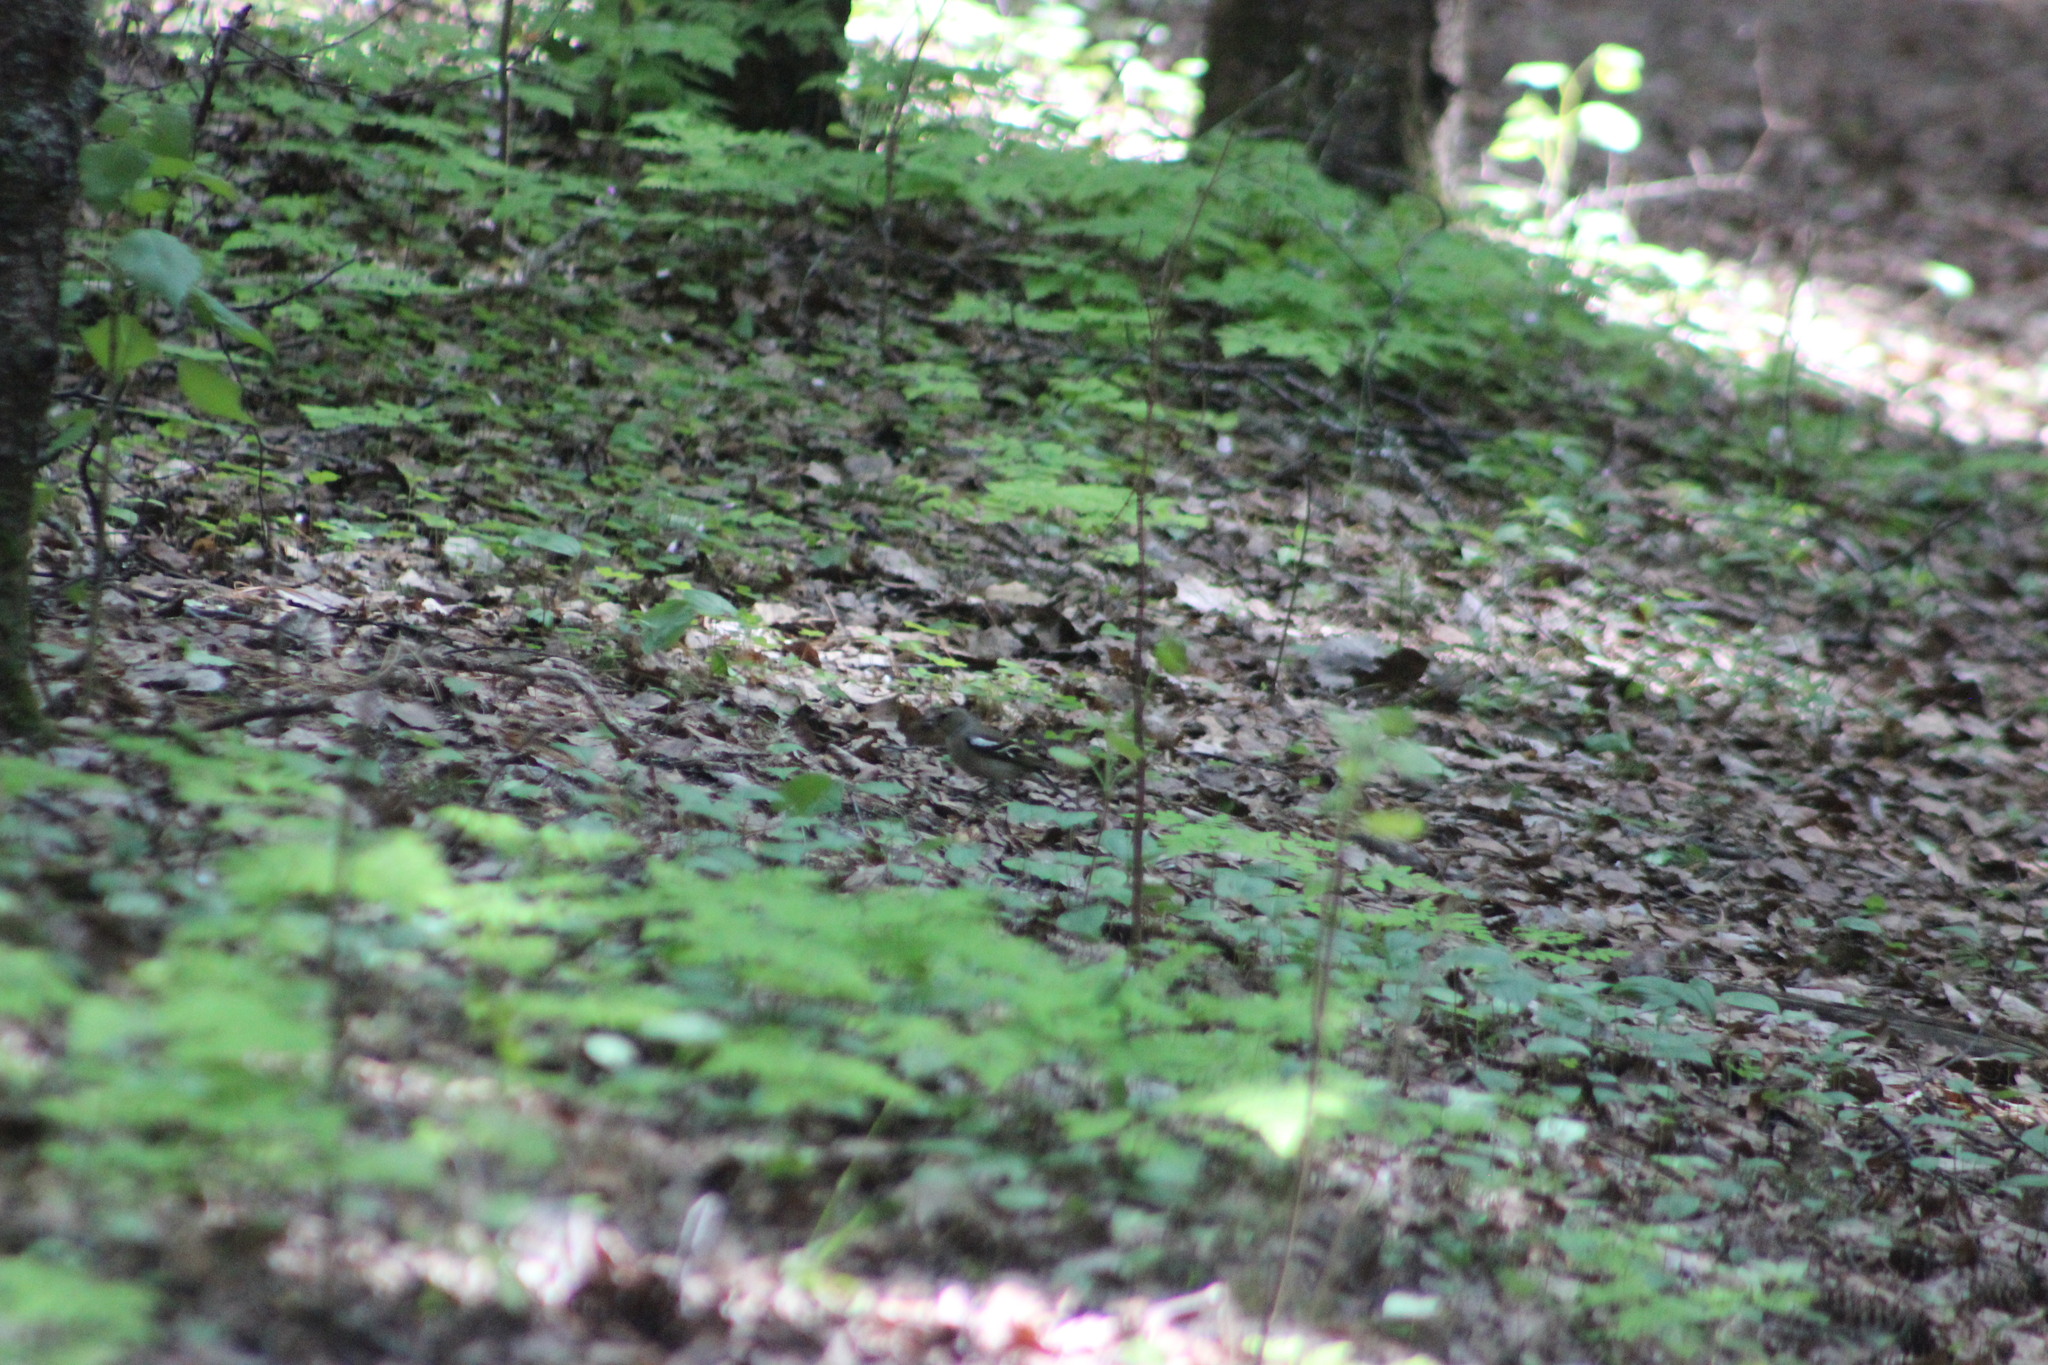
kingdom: Animalia
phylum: Chordata
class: Aves
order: Passeriformes
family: Fringillidae
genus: Fringilla
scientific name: Fringilla coelebs
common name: Common chaffinch
